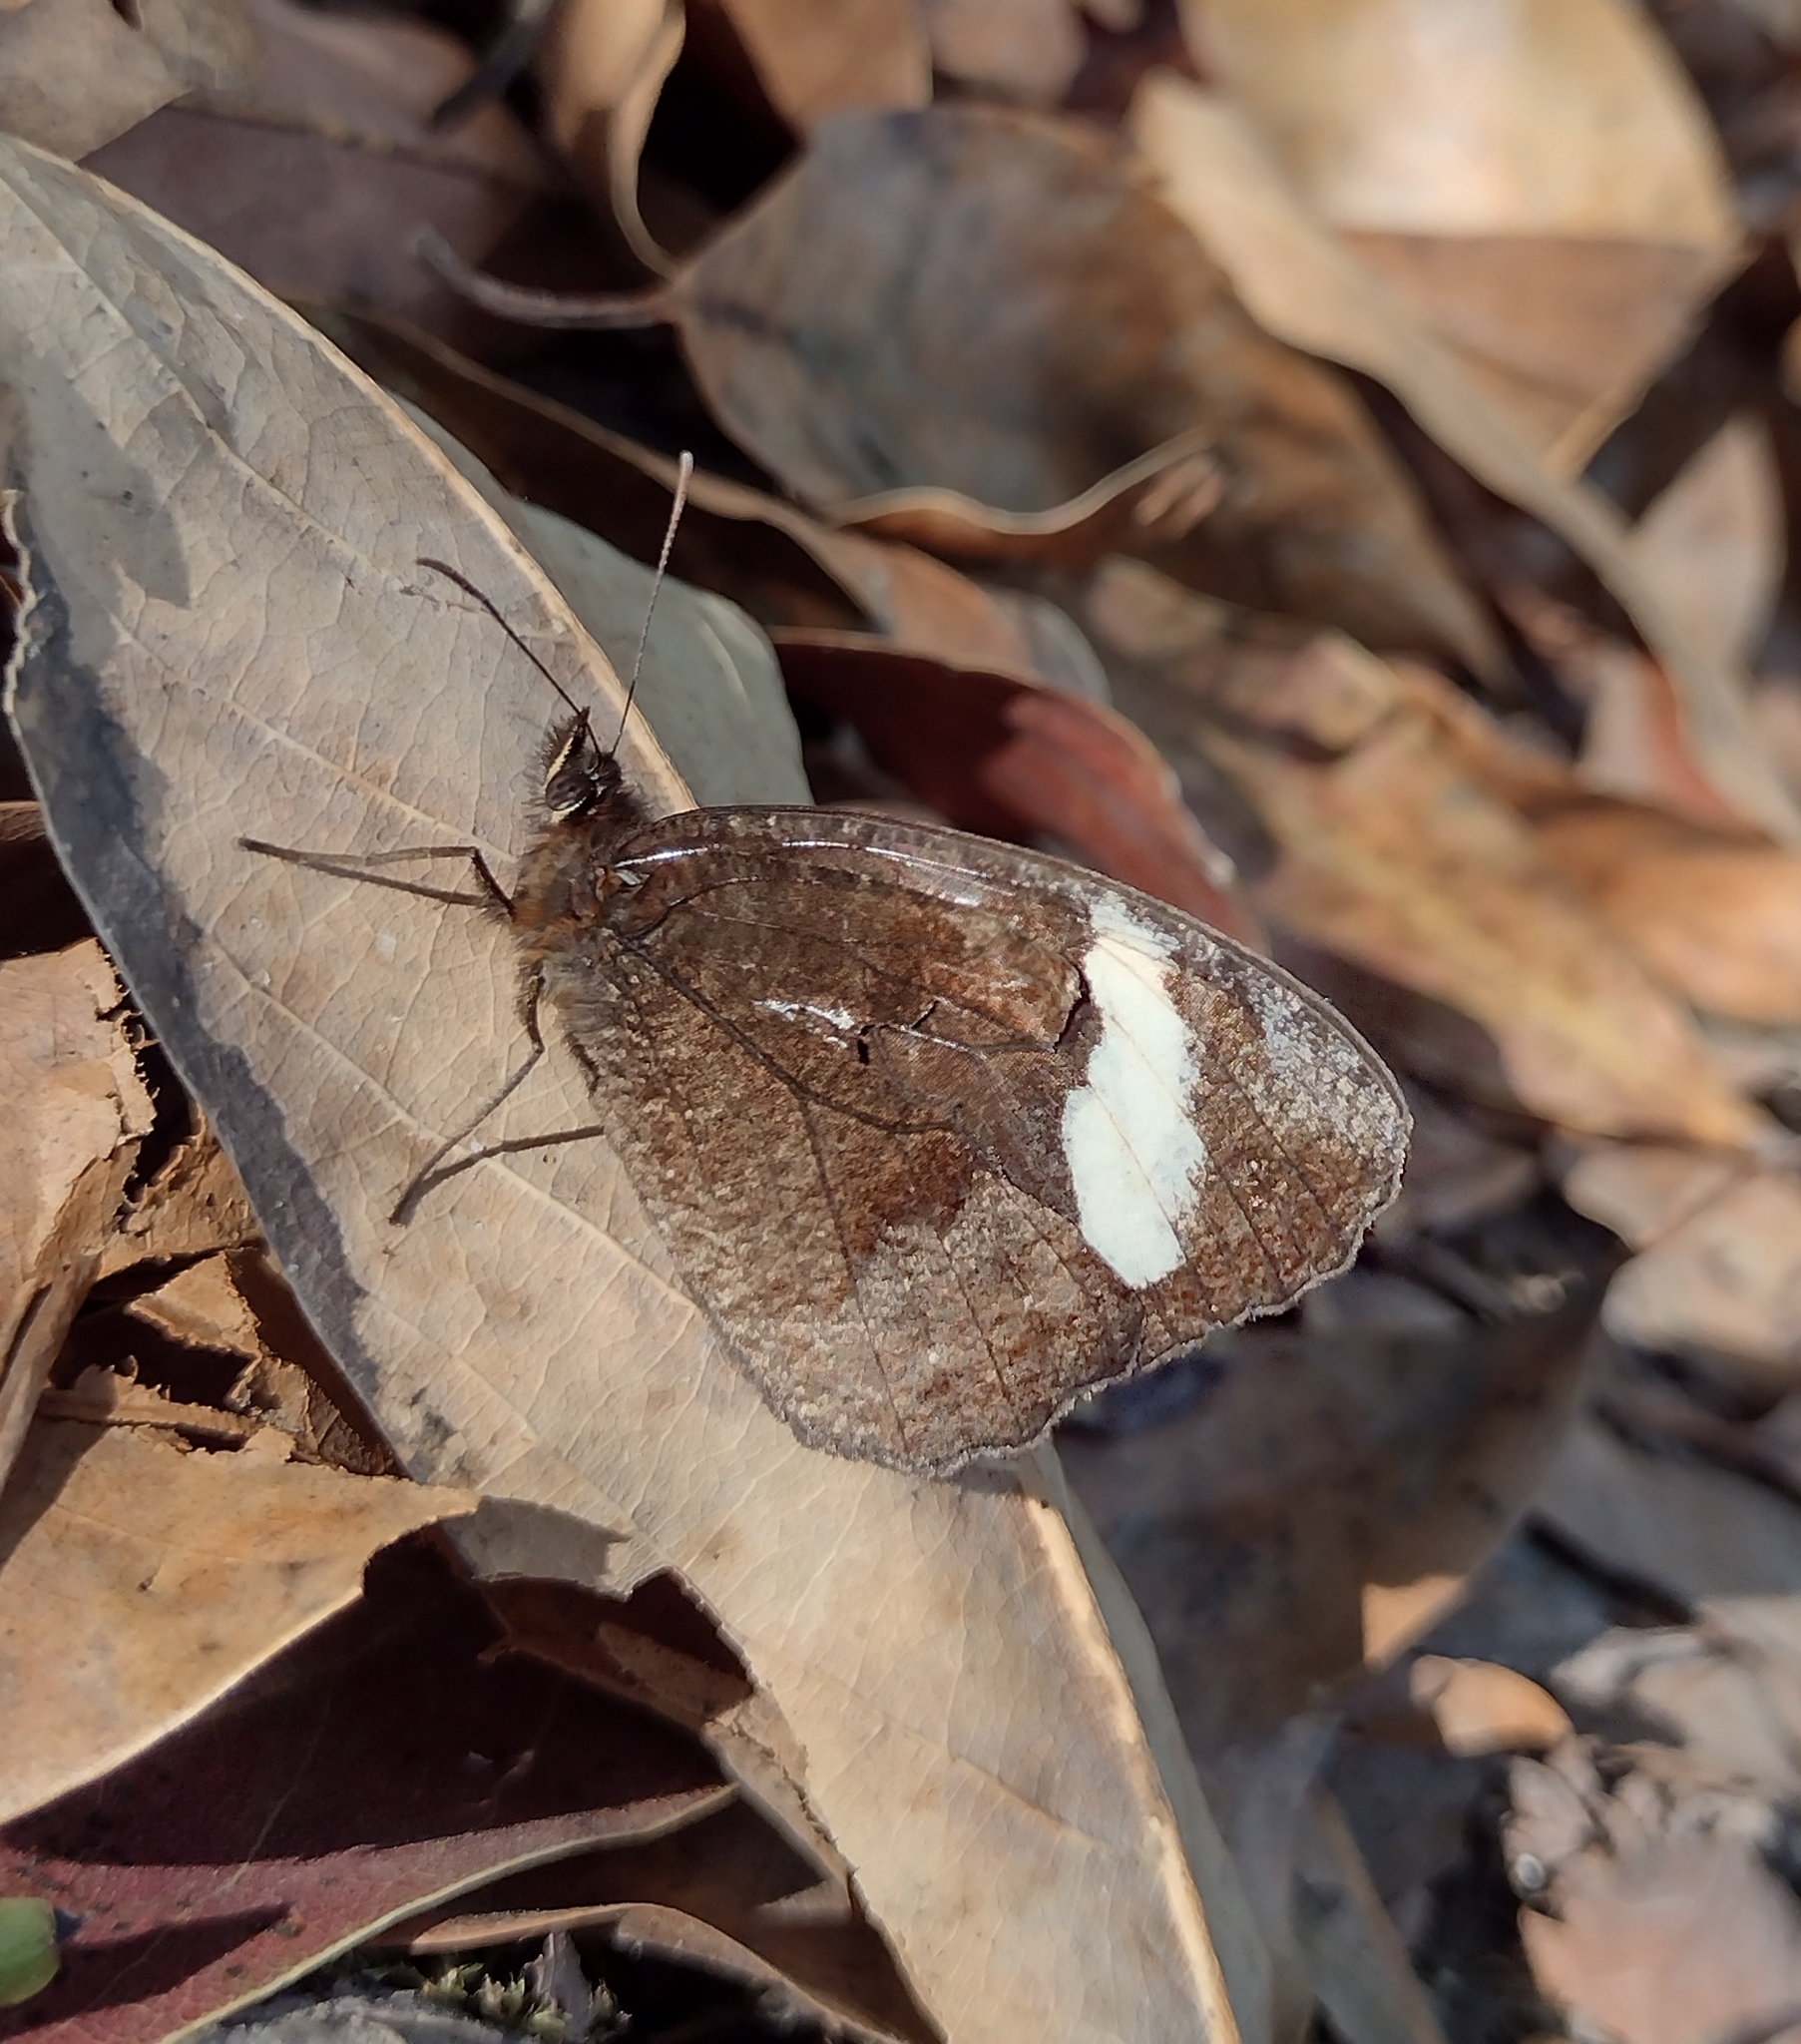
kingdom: Animalia
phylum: Arthropoda
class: Insecta
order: Lepidoptera
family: Nymphalidae
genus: Pedaliodes
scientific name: Pedaliodes porina
